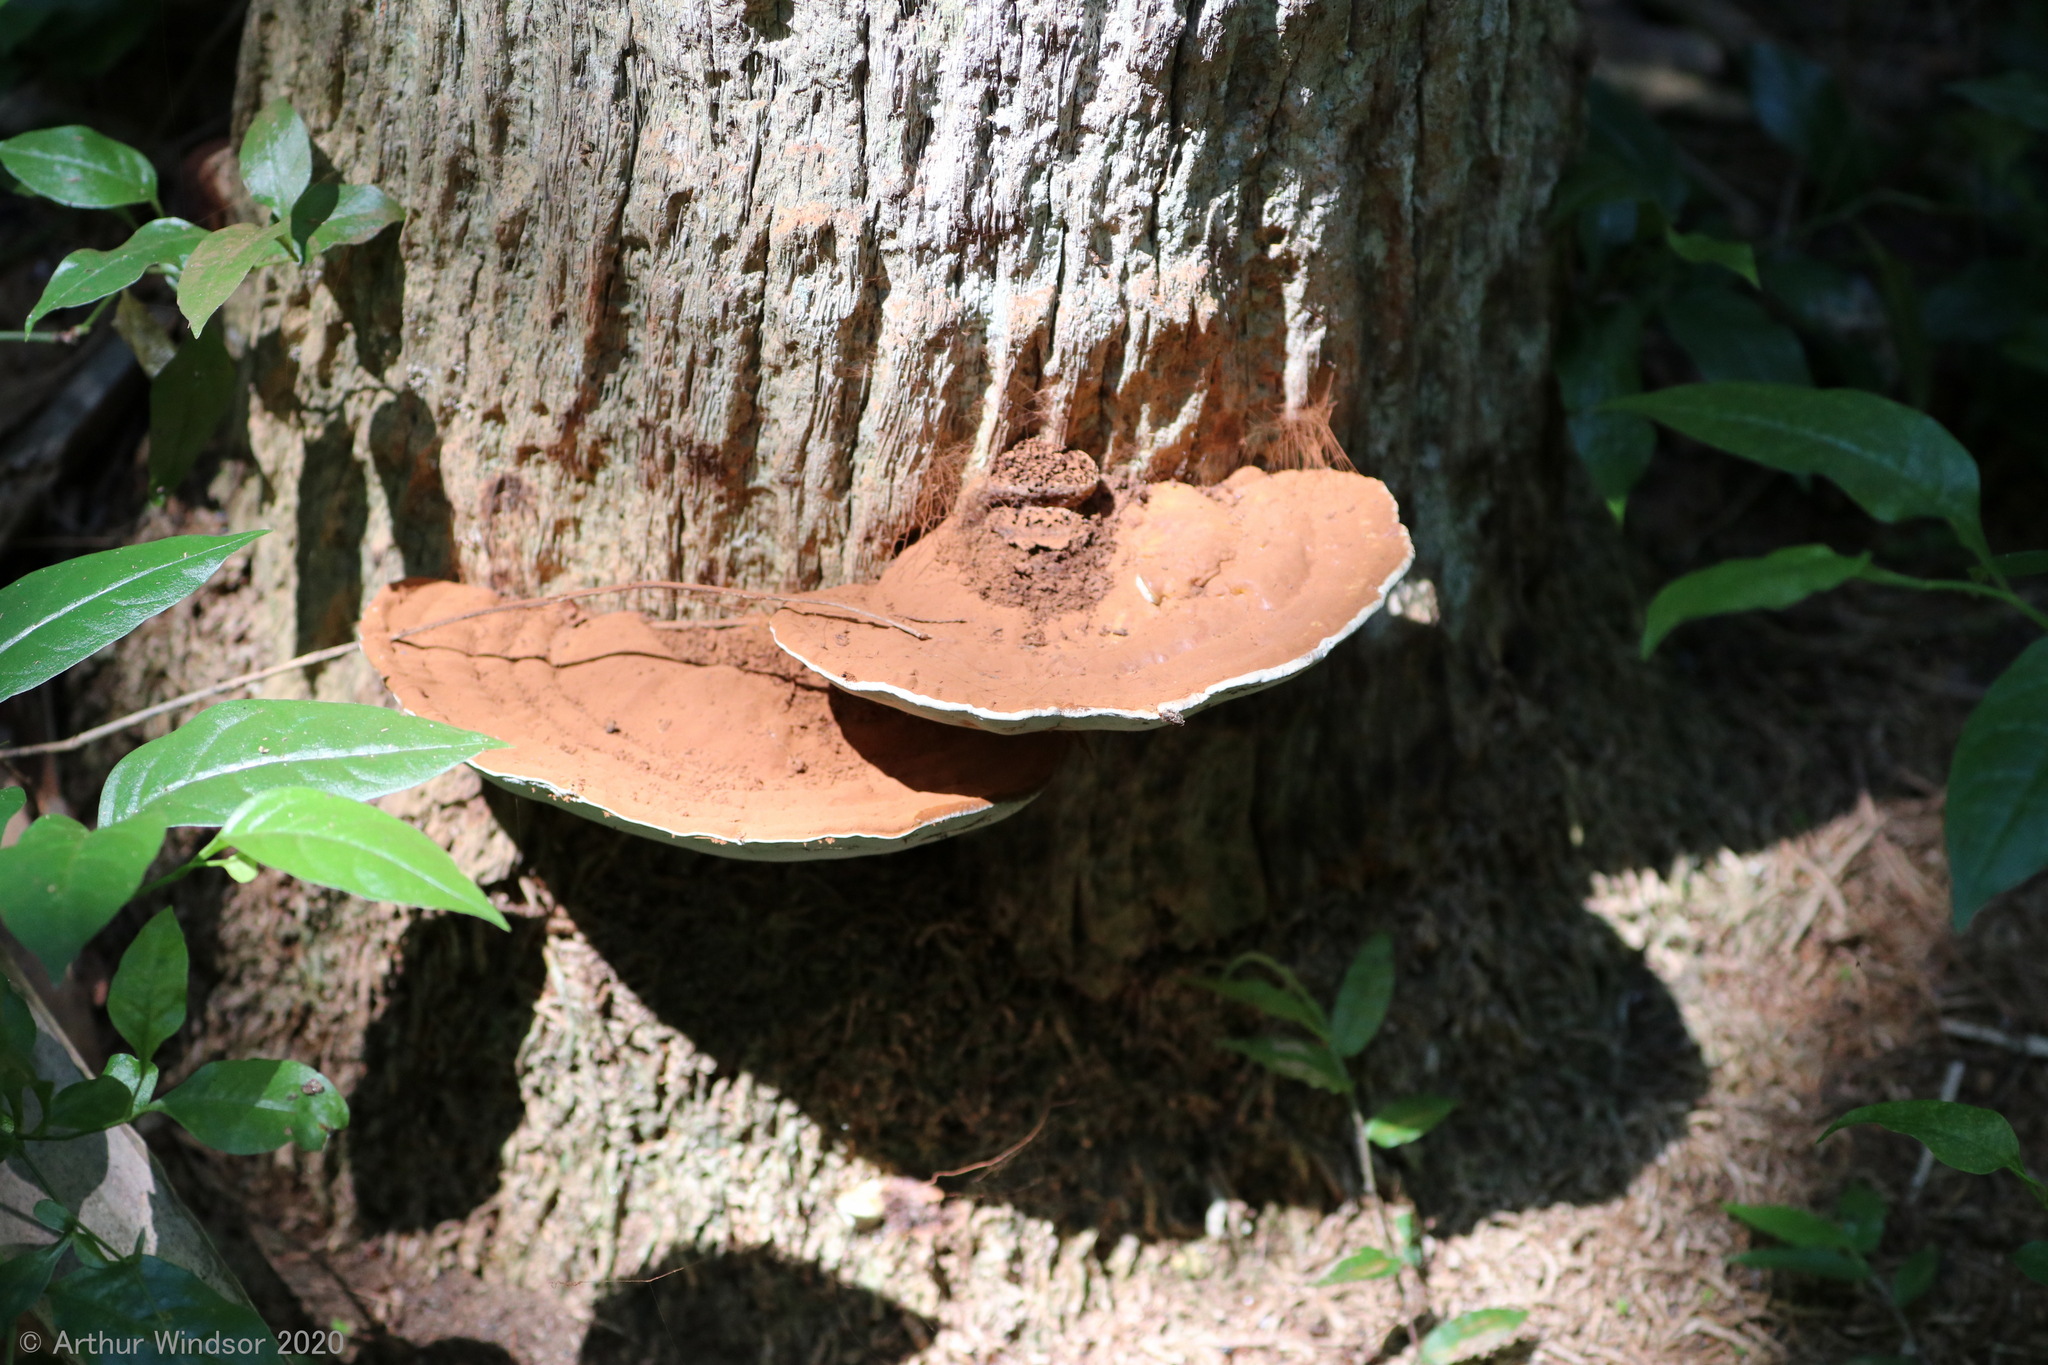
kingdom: Fungi
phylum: Basidiomycota
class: Agaricomycetes
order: Polyporales
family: Polyporaceae
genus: Ganoderma
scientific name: Ganoderma zonatum
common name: Ganoderma butt rot
